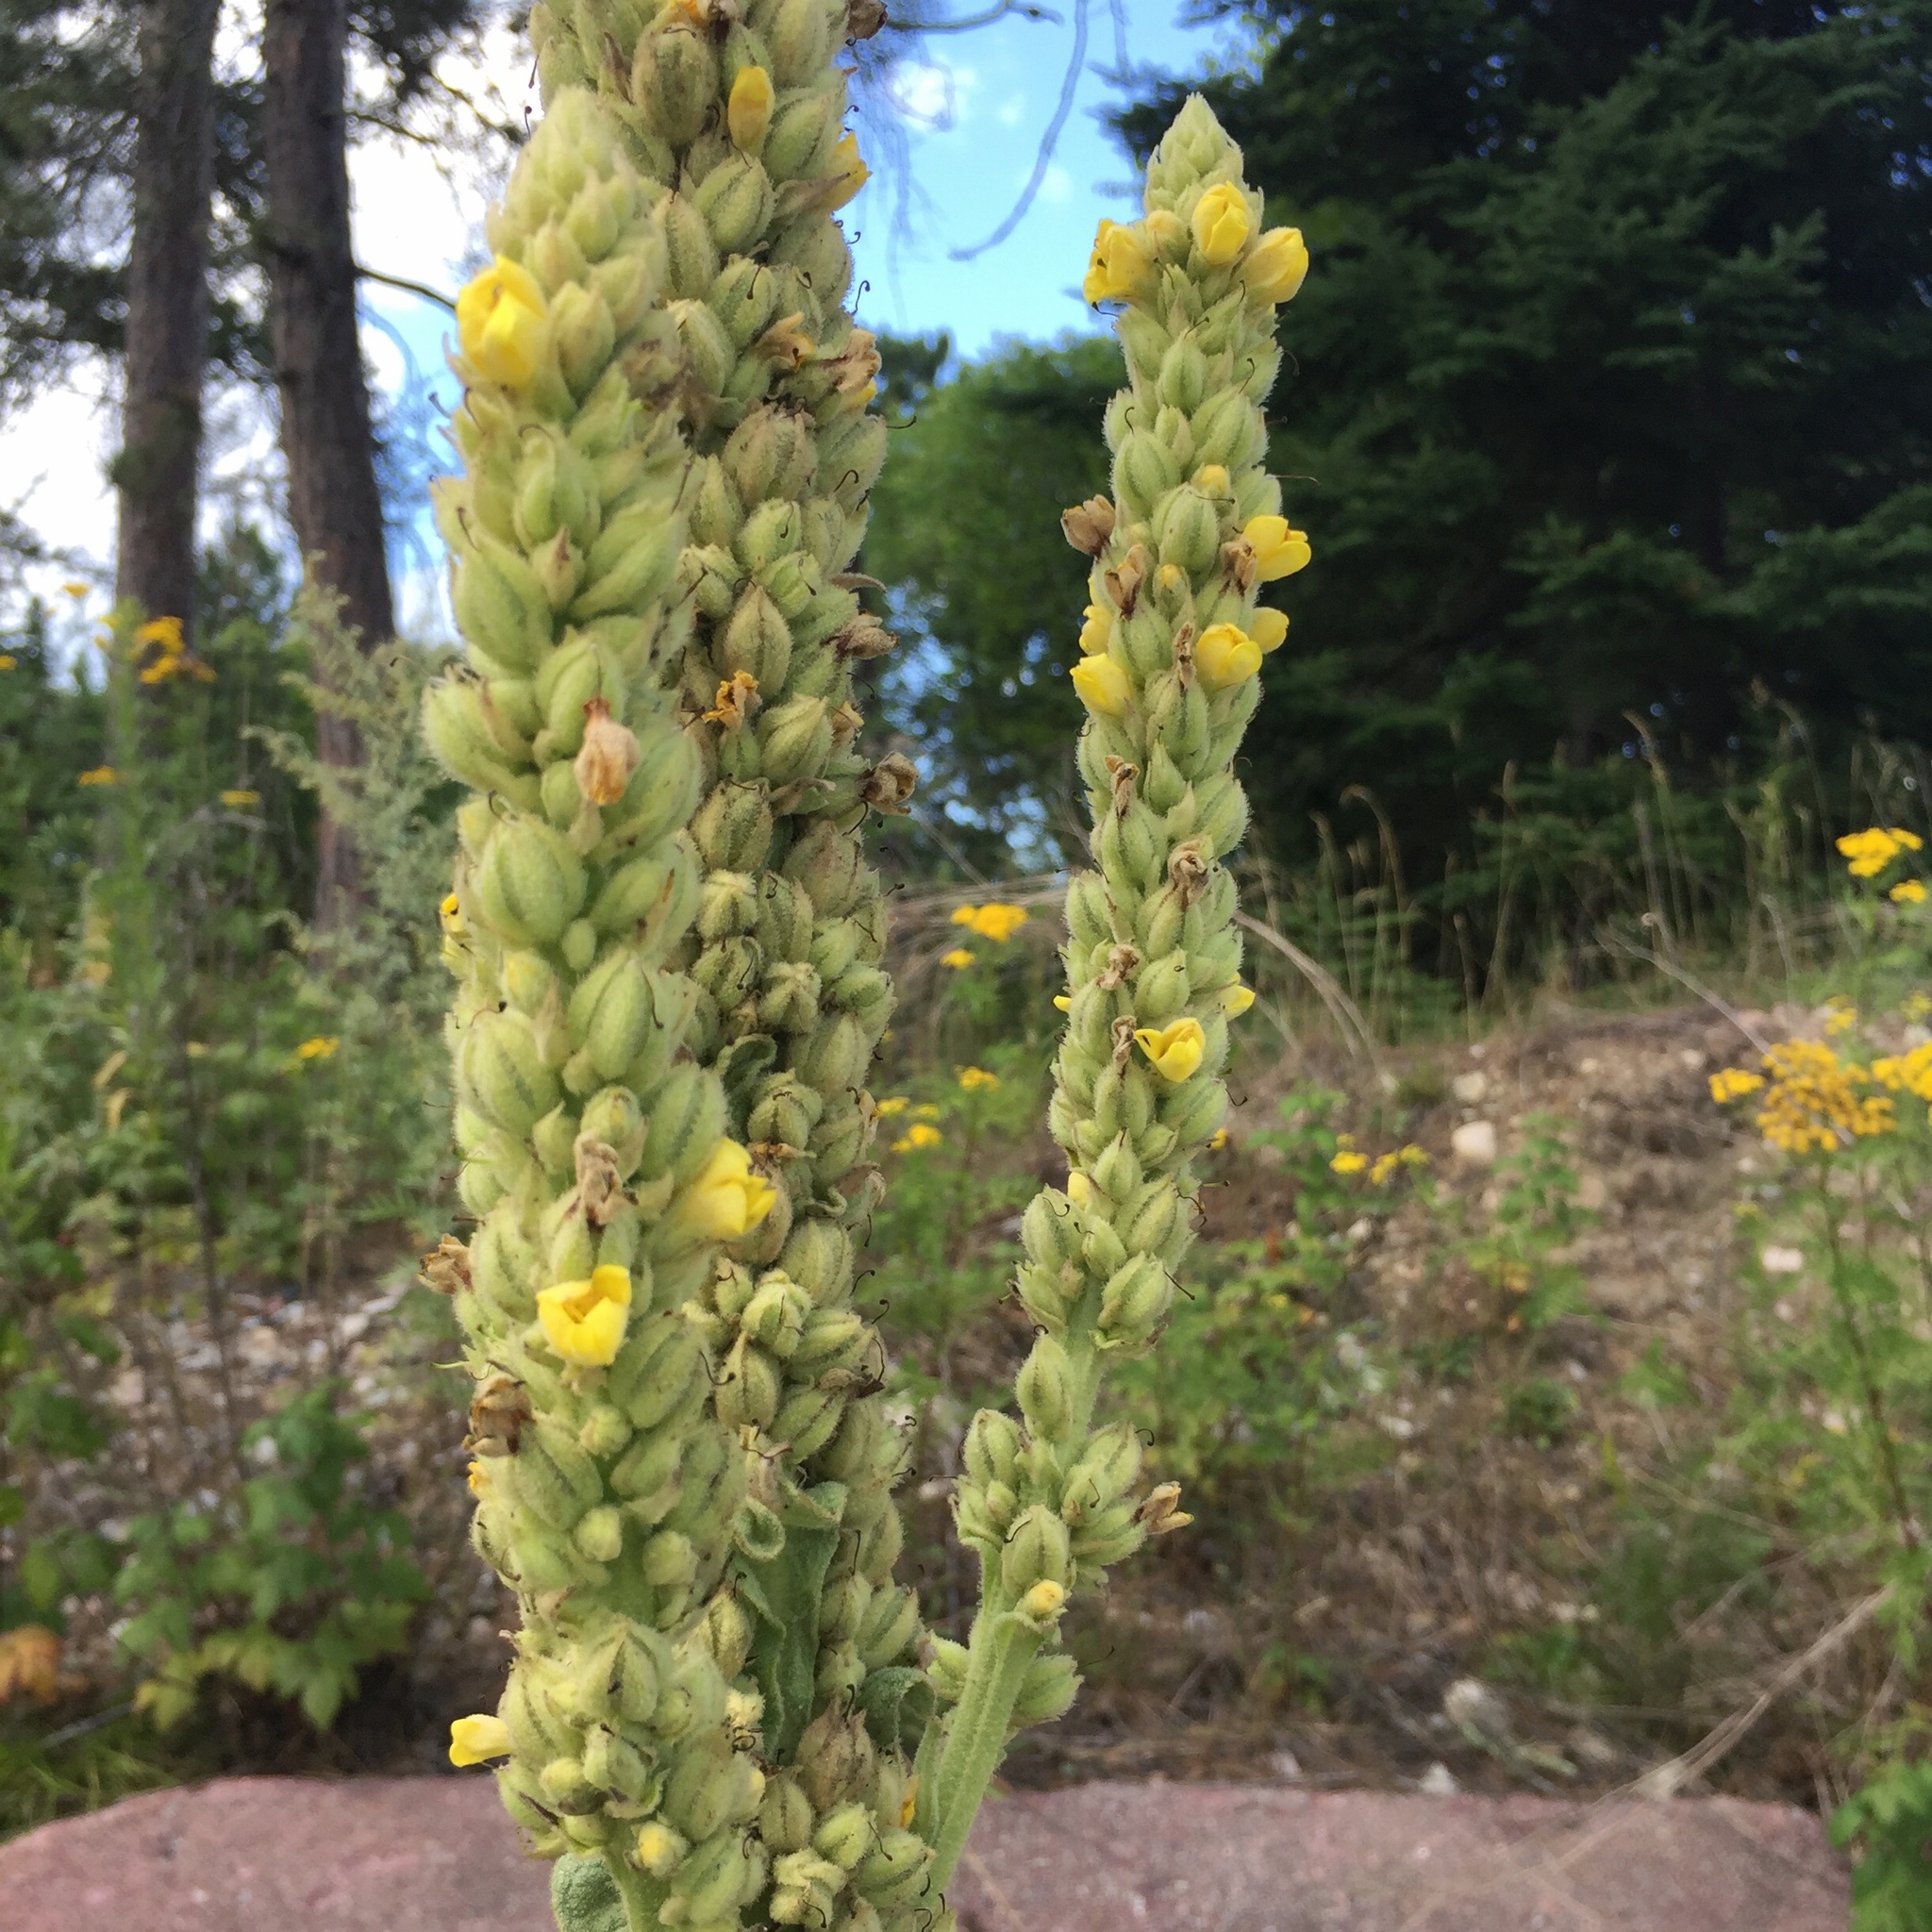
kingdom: Plantae
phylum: Tracheophyta
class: Magnoliopsida
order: Lamiales
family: Scrophulariaceae
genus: Verbascum
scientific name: Verbascum thapsus
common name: Common mullein
